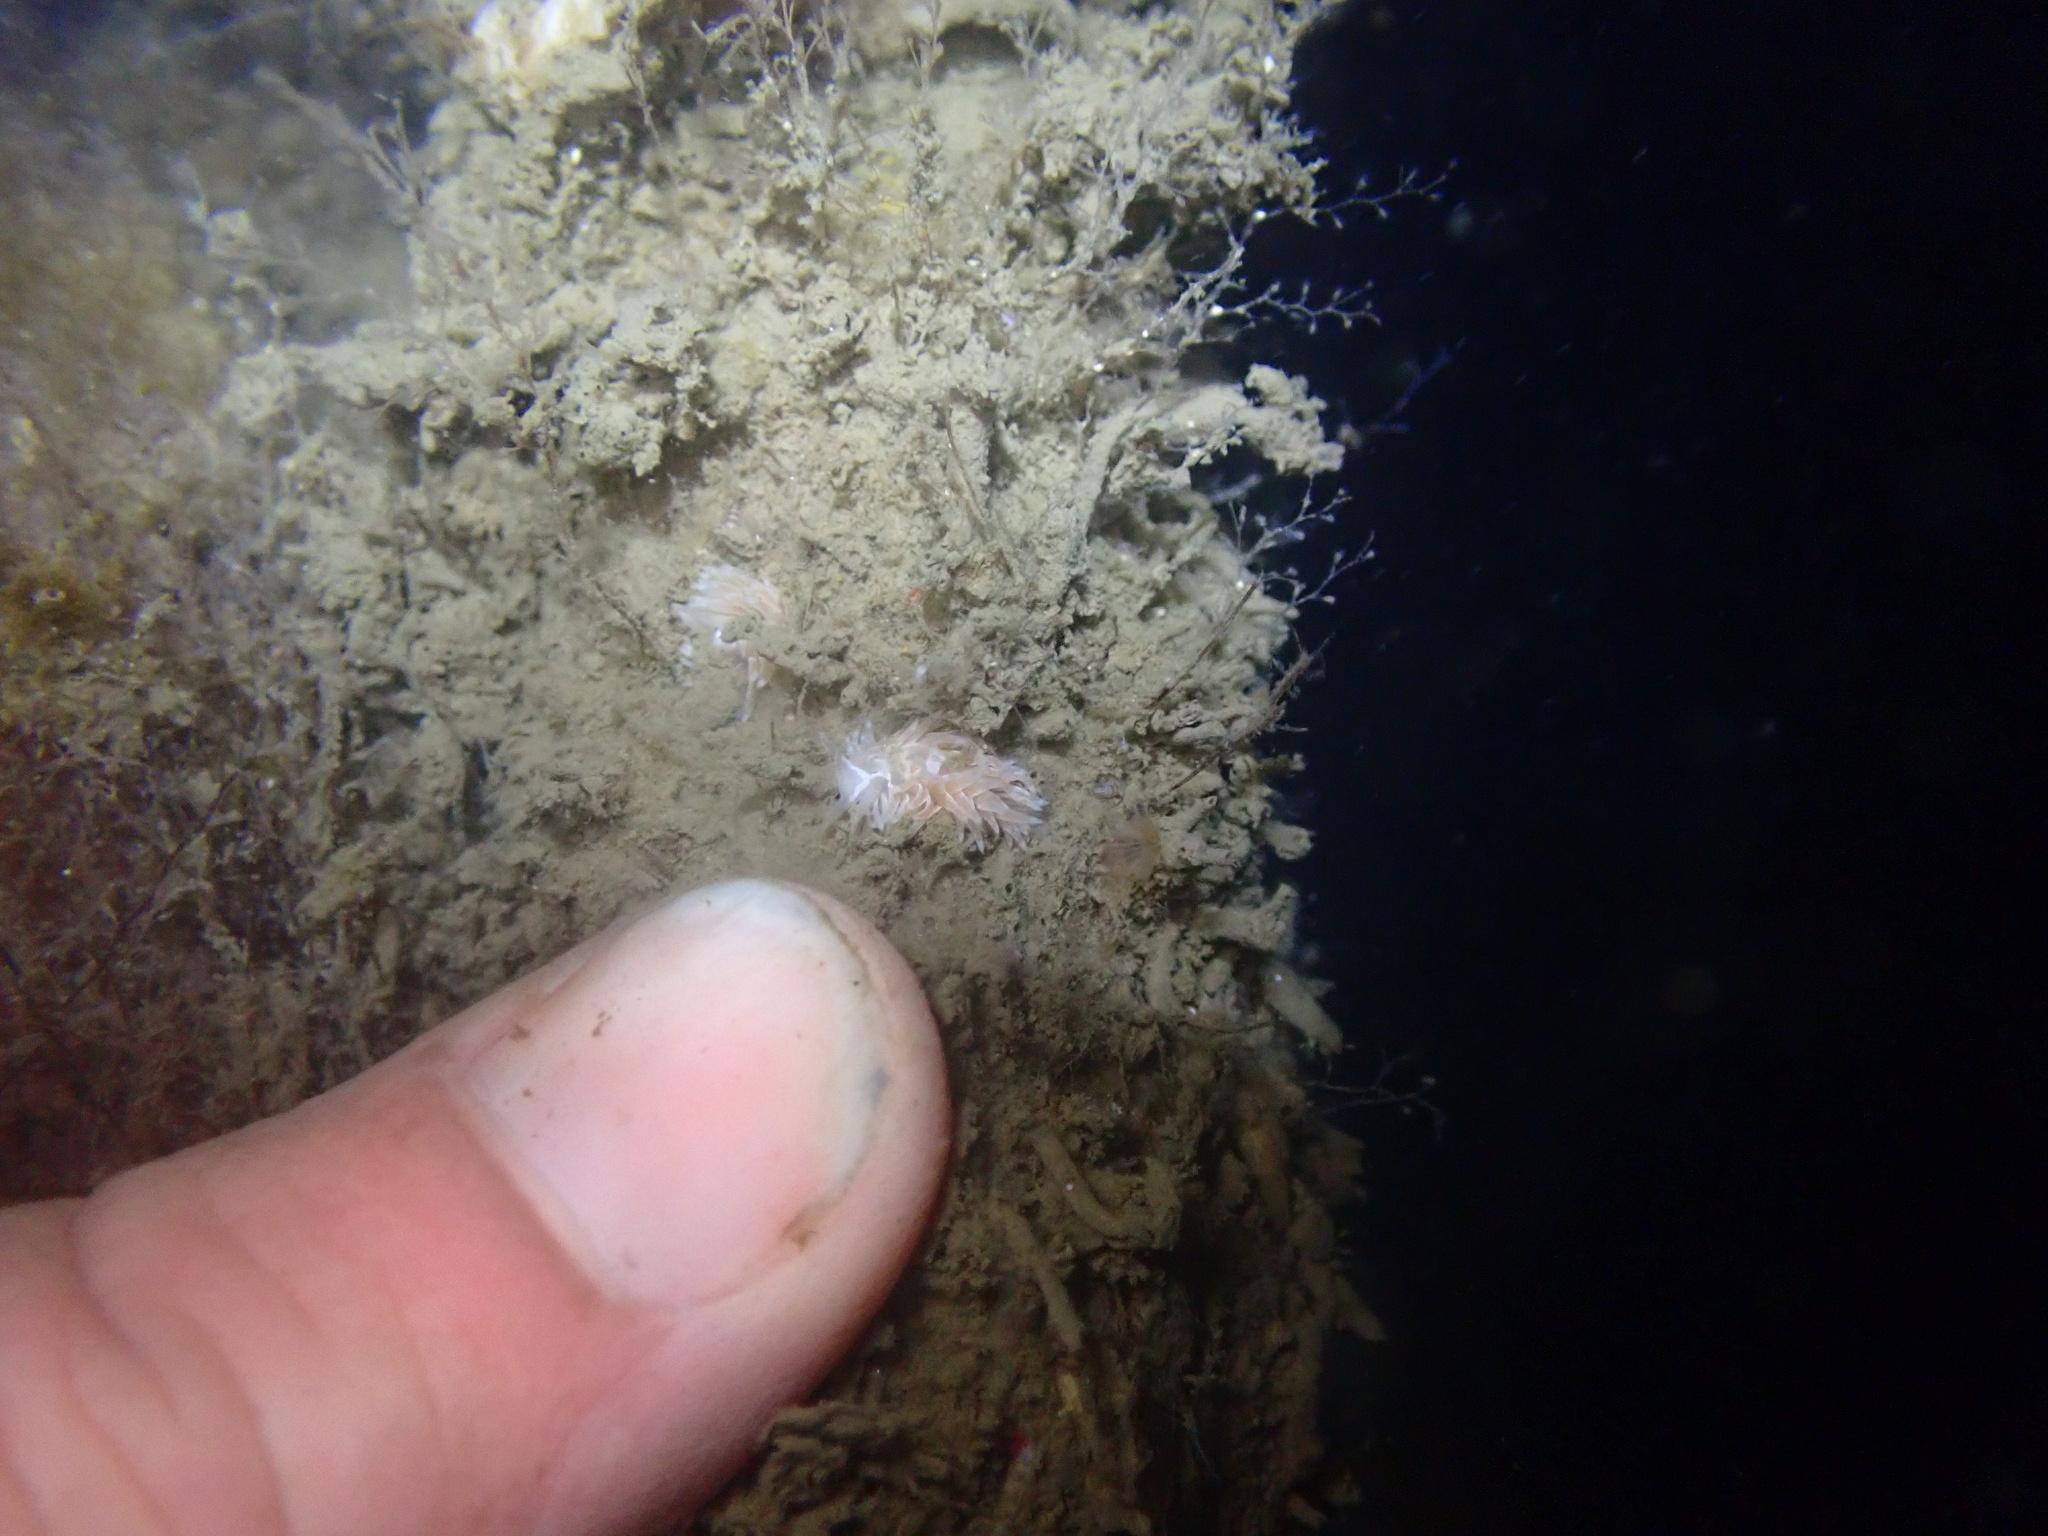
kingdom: Animalia
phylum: Mollusca
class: Gastropoda
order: Nudibranchia
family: Aeolidiidae
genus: Aeolidia
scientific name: Aeolidia loui
